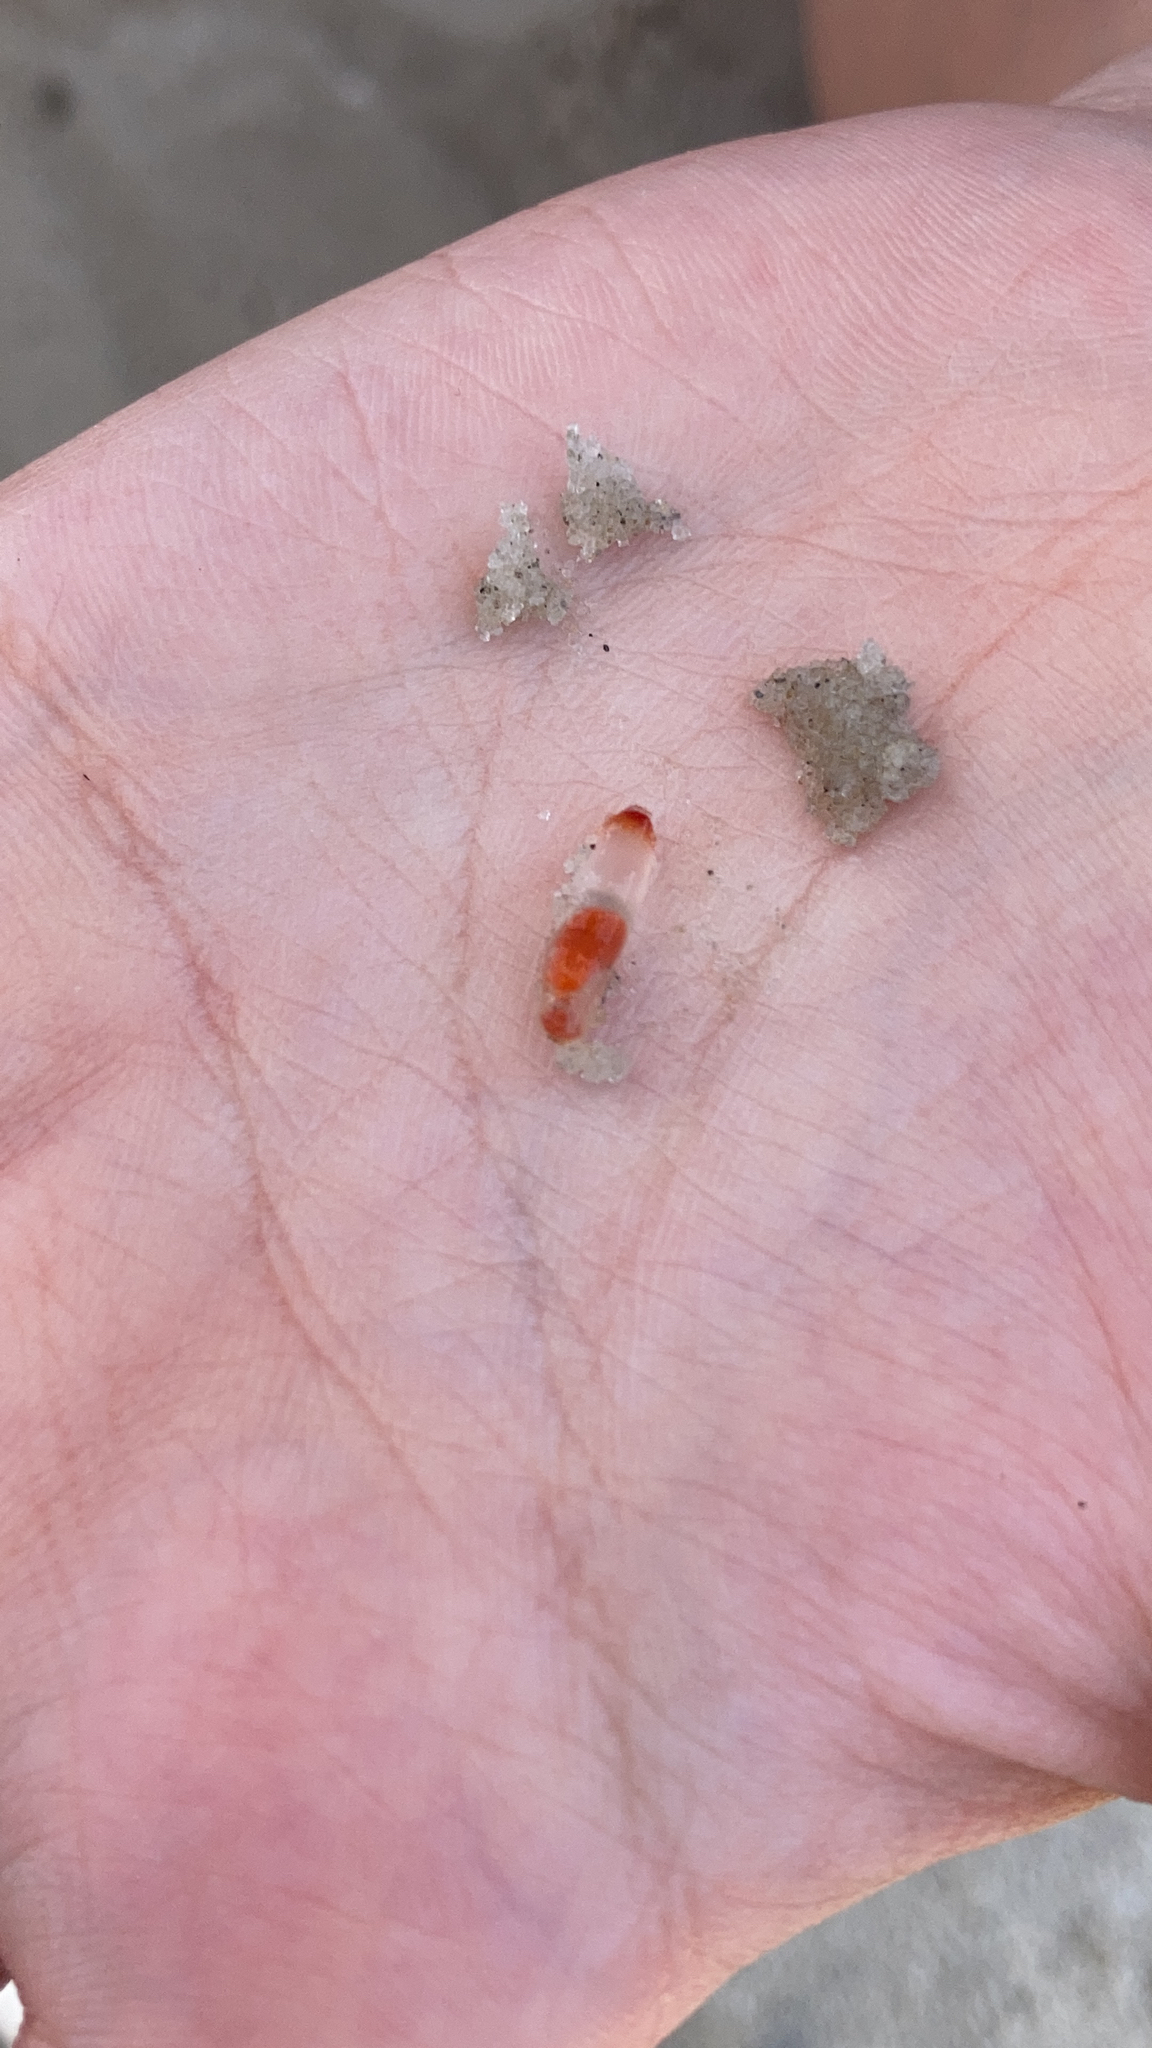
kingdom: Animalia
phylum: Mollusca
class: Gastropoda
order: Pteropoda
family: Clionidae
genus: Clione
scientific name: Clione limacina
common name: Common clione
